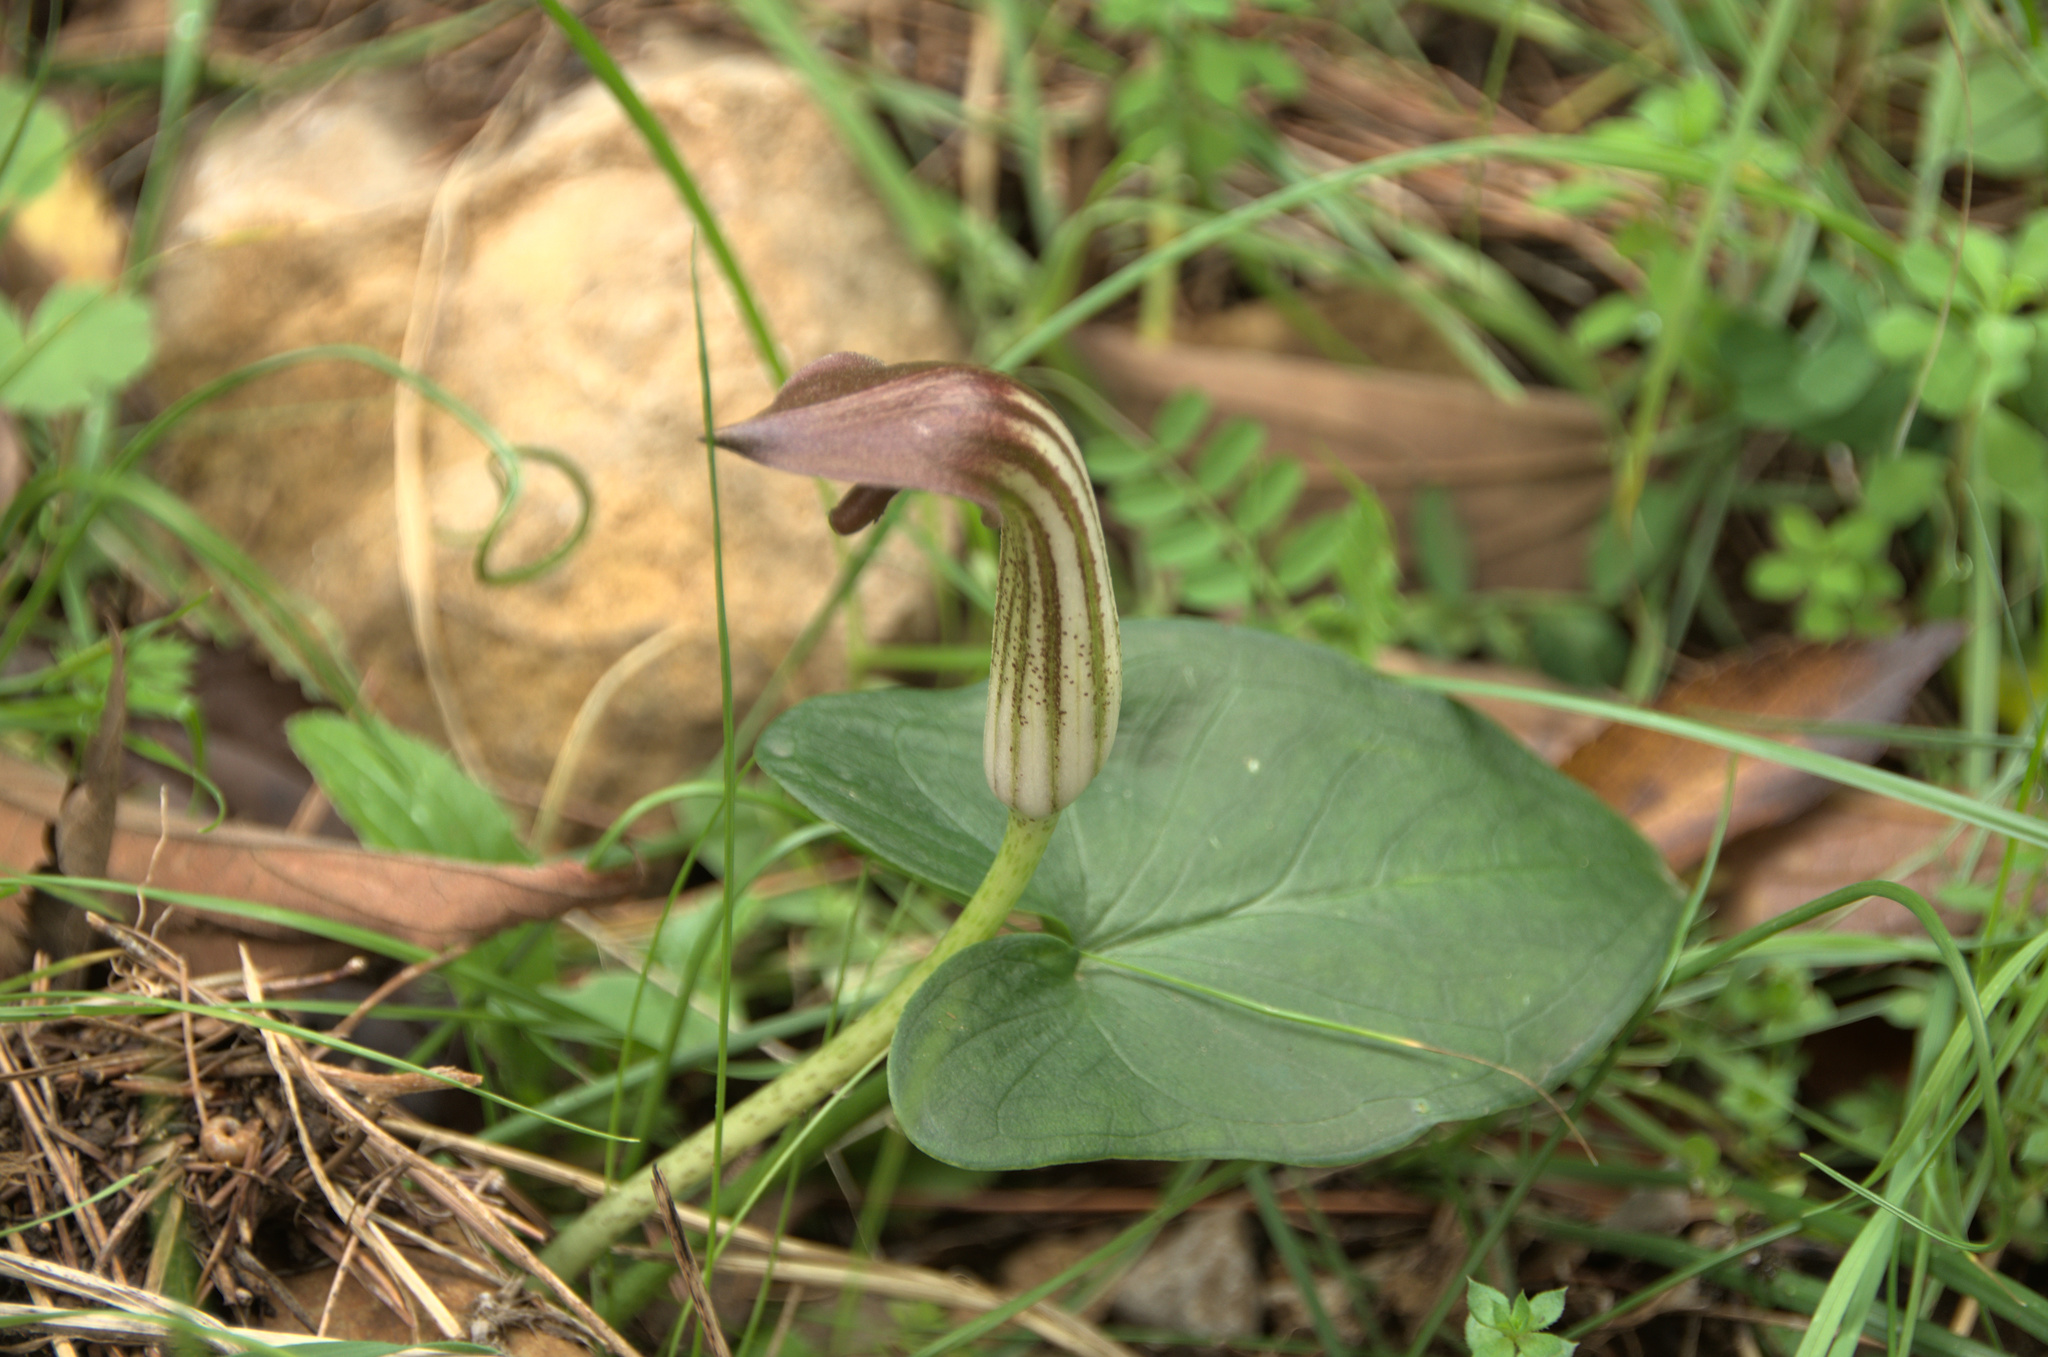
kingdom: Plantae
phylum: Tracheophyta
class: Liliopsida
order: Alismatales
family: Araceae
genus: Arisarum
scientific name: Arisarum vulgare
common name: Common arisarum
